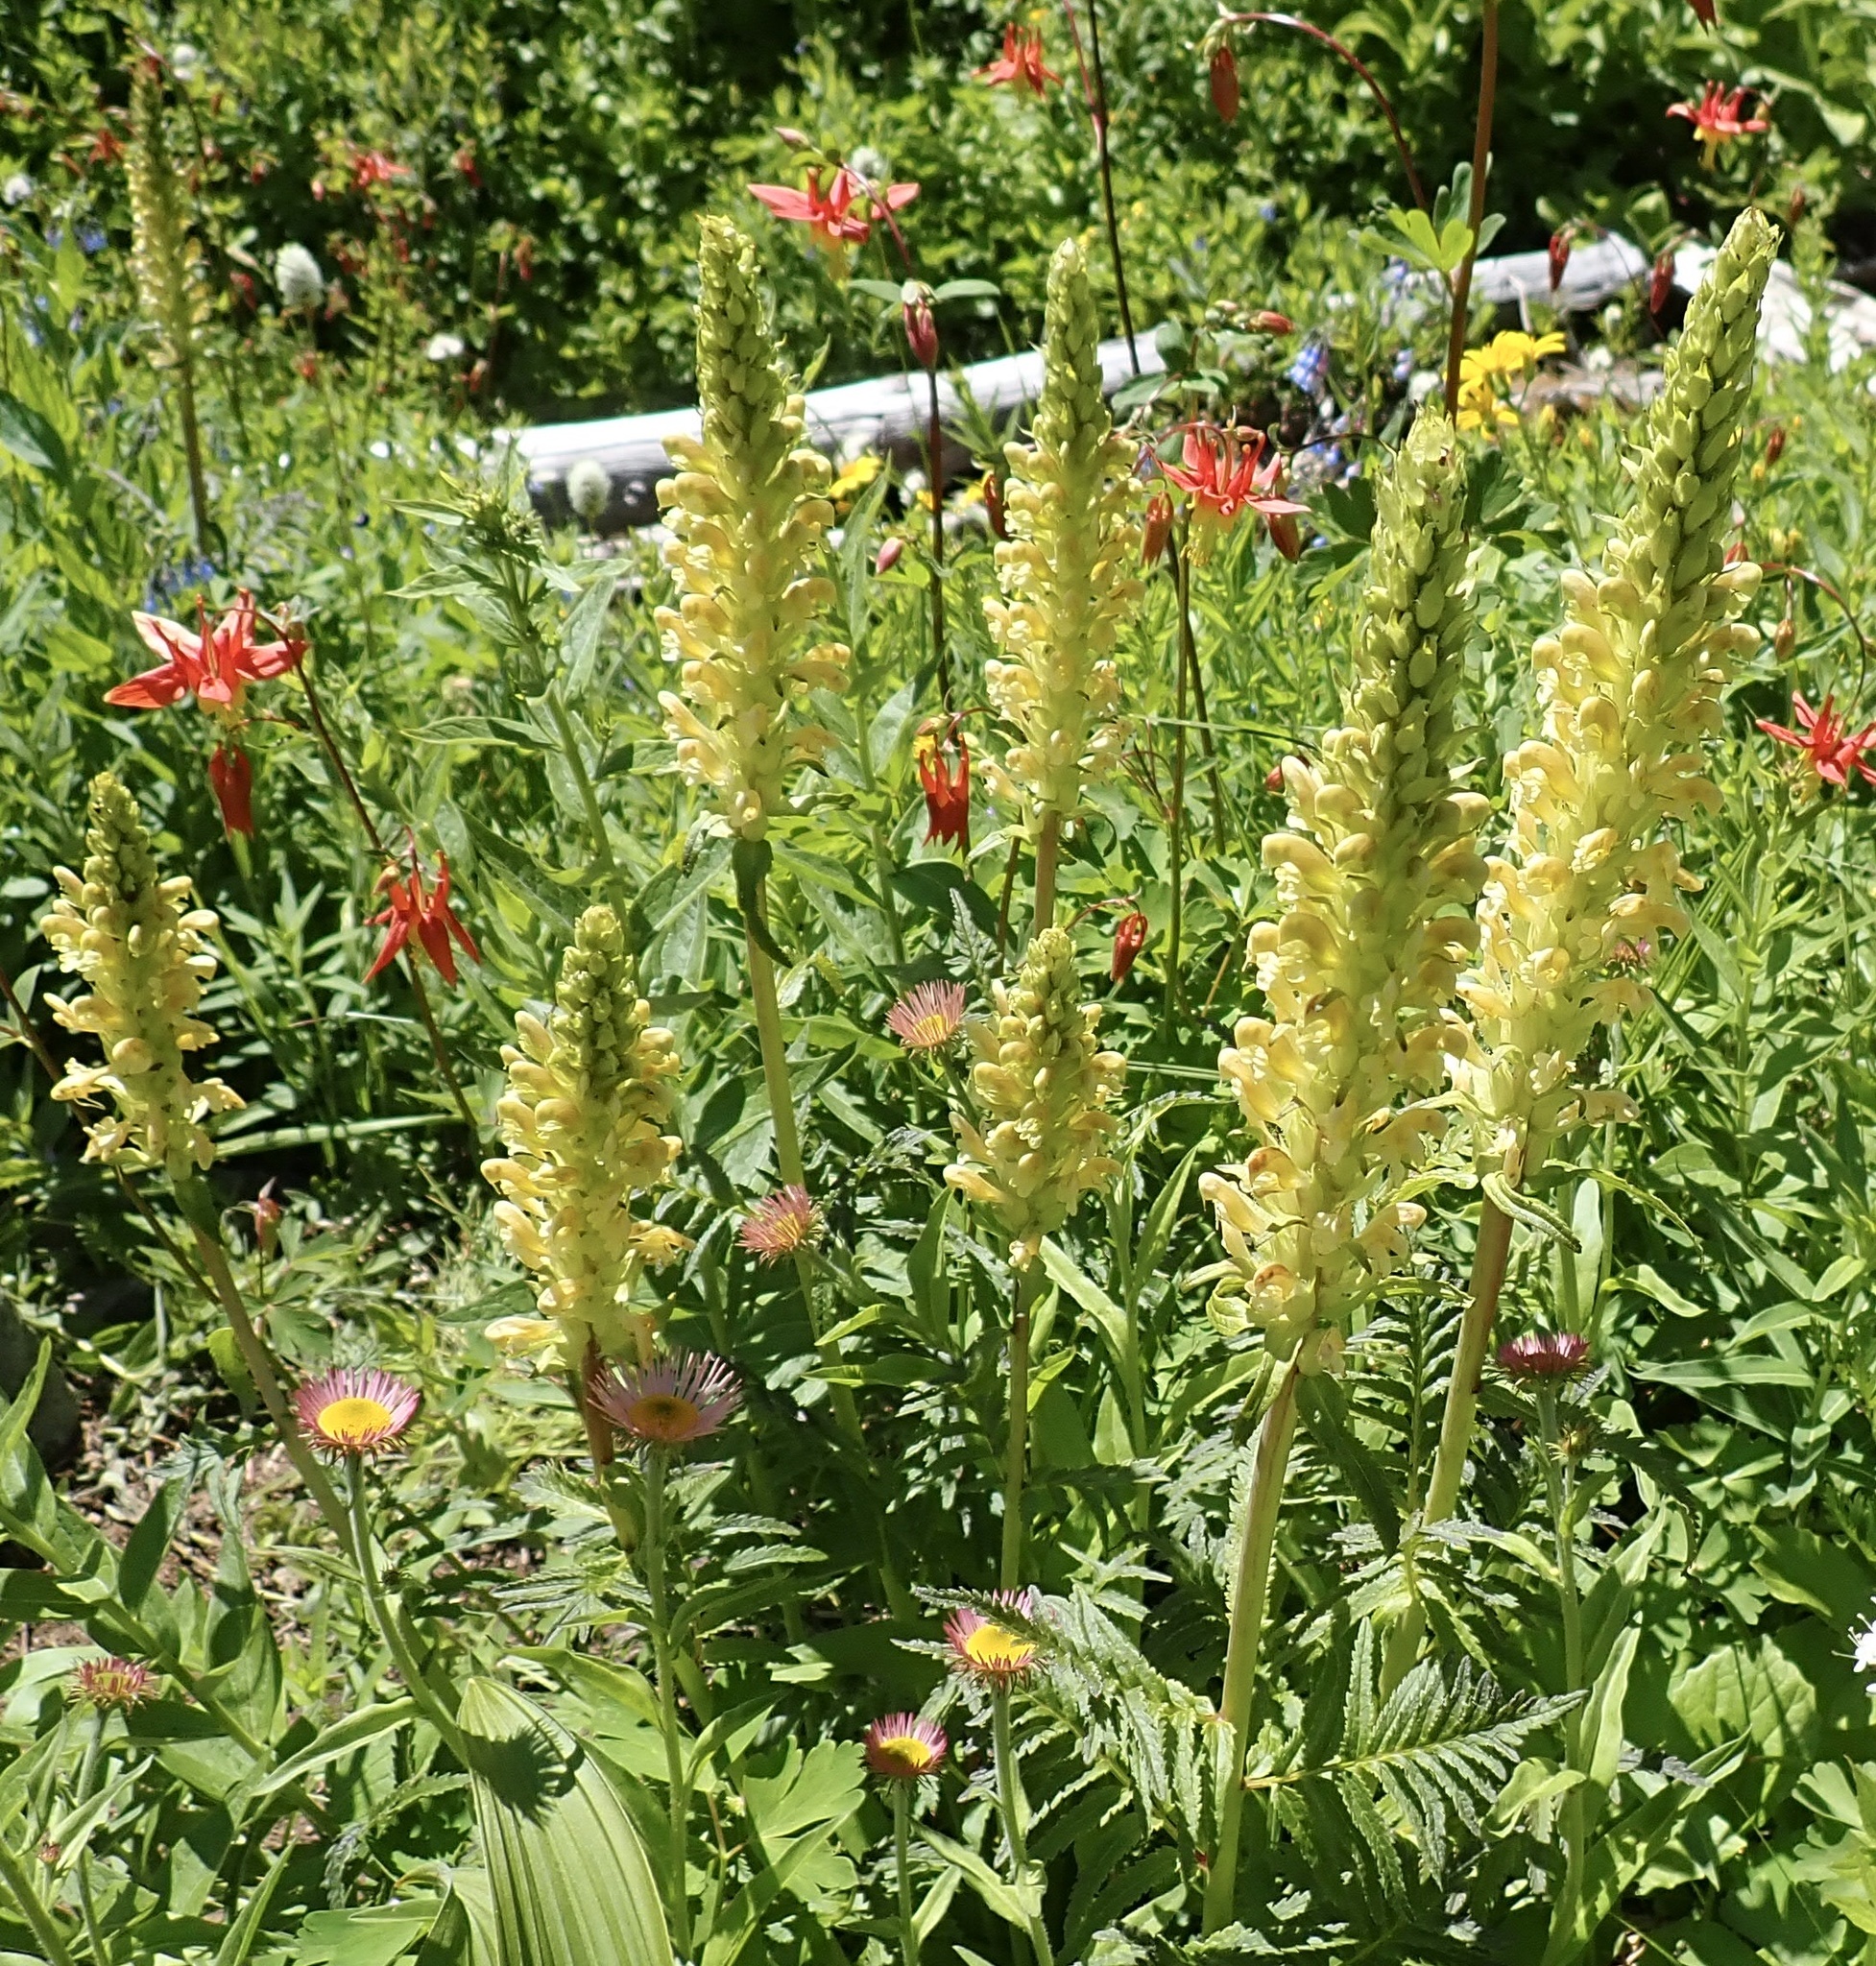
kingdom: Plantae
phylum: Tracheophyta
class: Magnoliopsida
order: Lamiales
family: Orobanchaceae
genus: Pedicularis
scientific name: Pedicularis bracteosa
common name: Bracted lousewort
